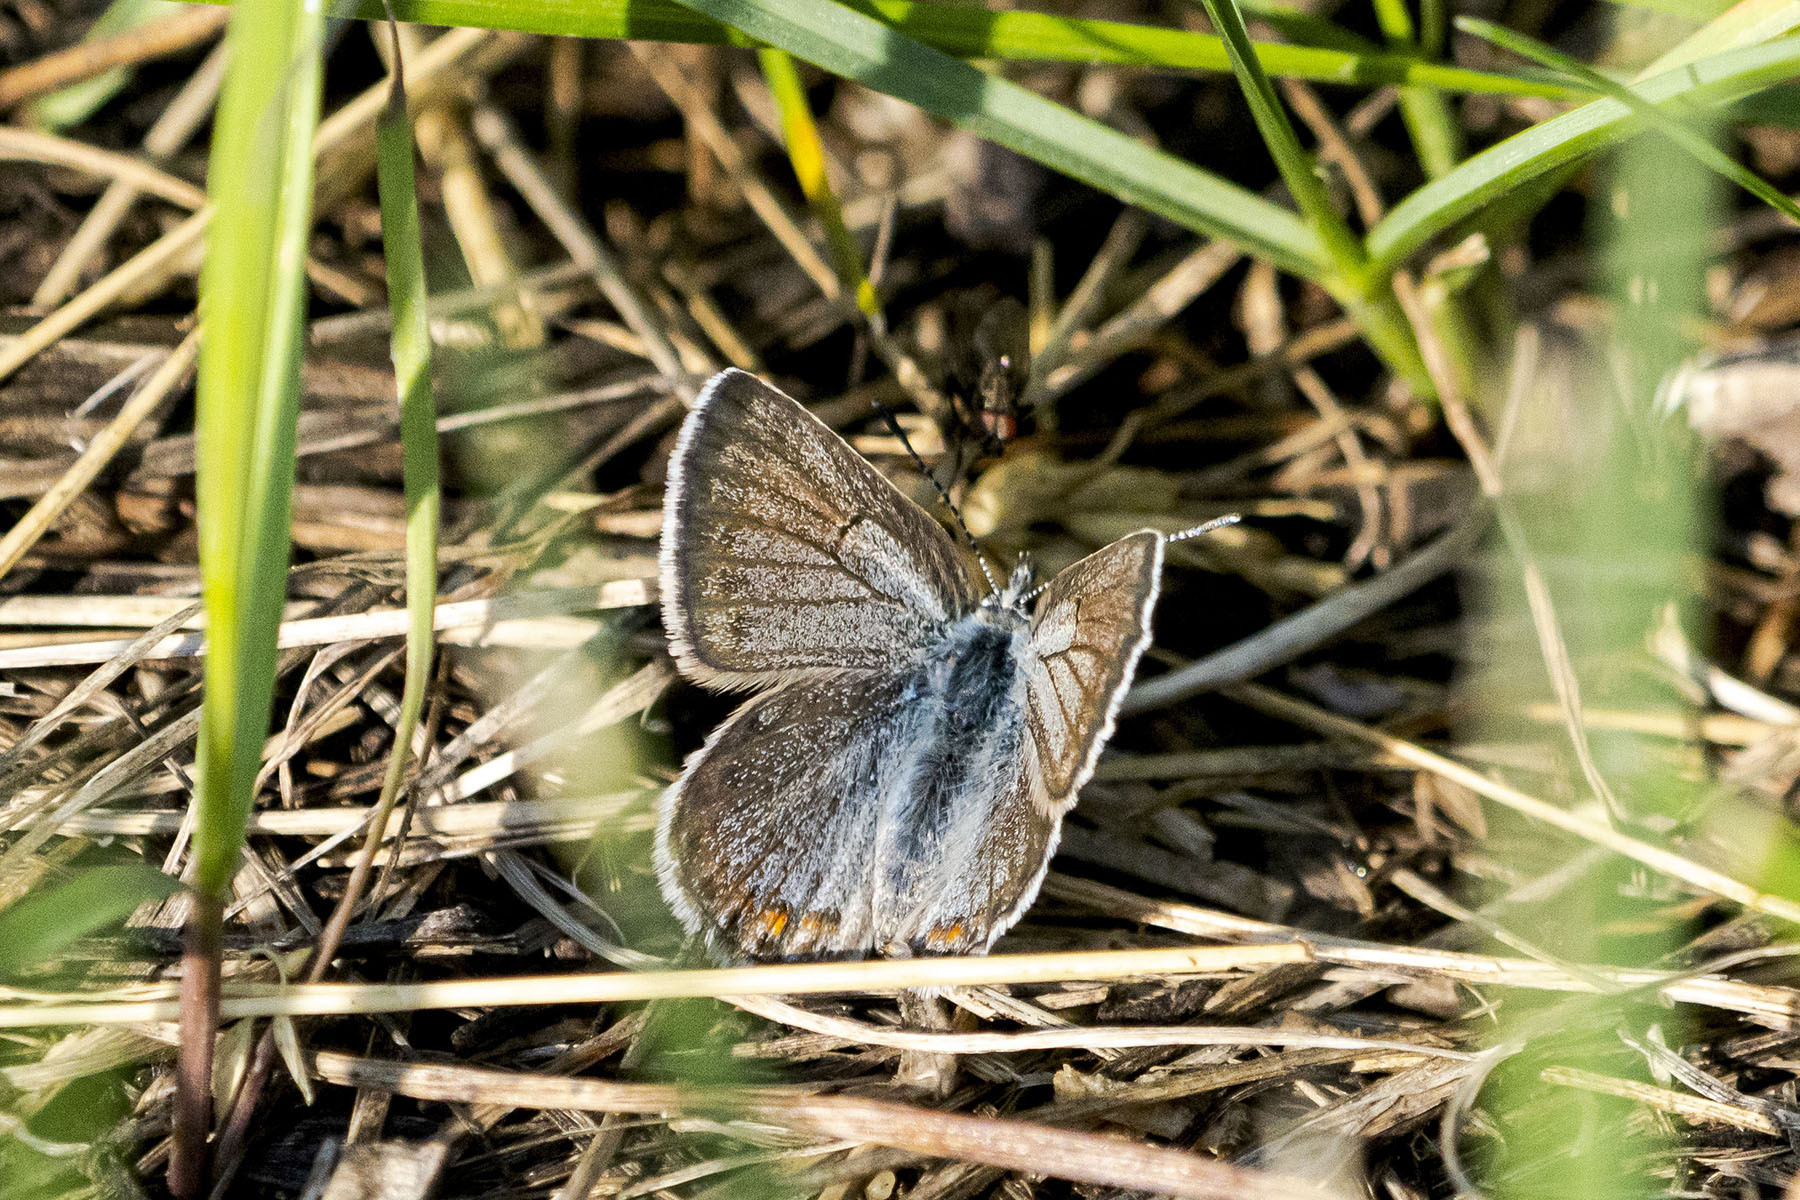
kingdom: Animalia
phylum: Arthropoda
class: Insecta
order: Lepidoptera
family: Lycaenidae
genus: Lycaeides
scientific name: Lycaeides melissa
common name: Melissa blue
